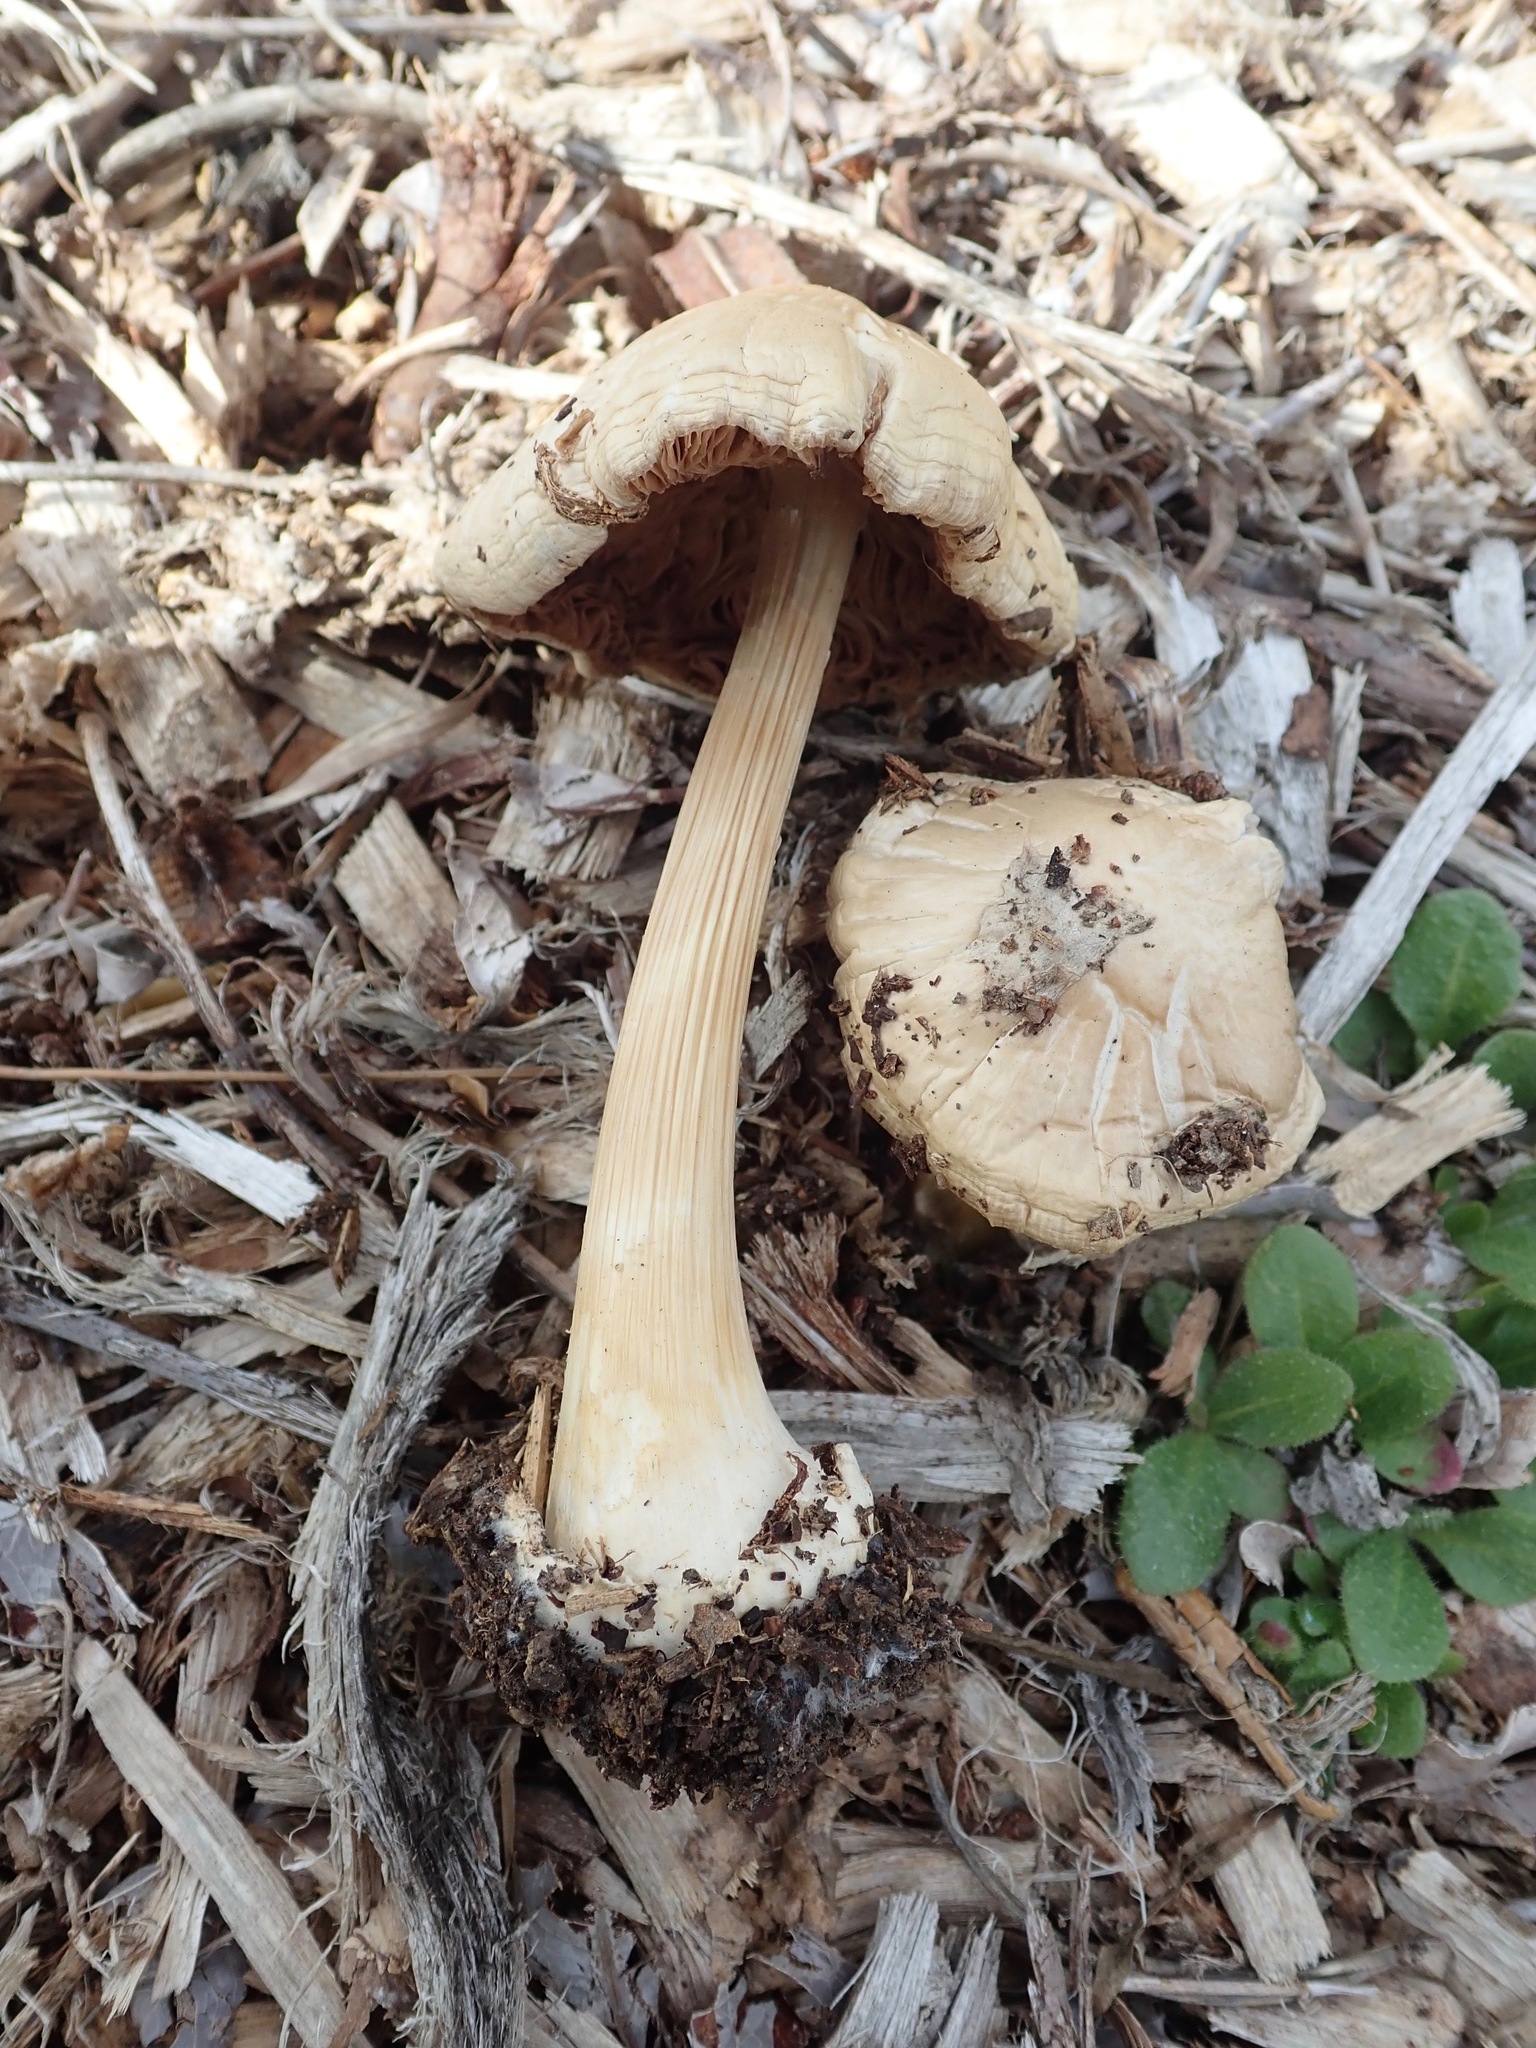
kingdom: Fungi
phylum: Basidiomycota
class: Agaricomycetes
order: Agaricales
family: Pluteaceae
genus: Volvopluteus
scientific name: Volvopluteus gloiocephalus
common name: Stubble rosegill
